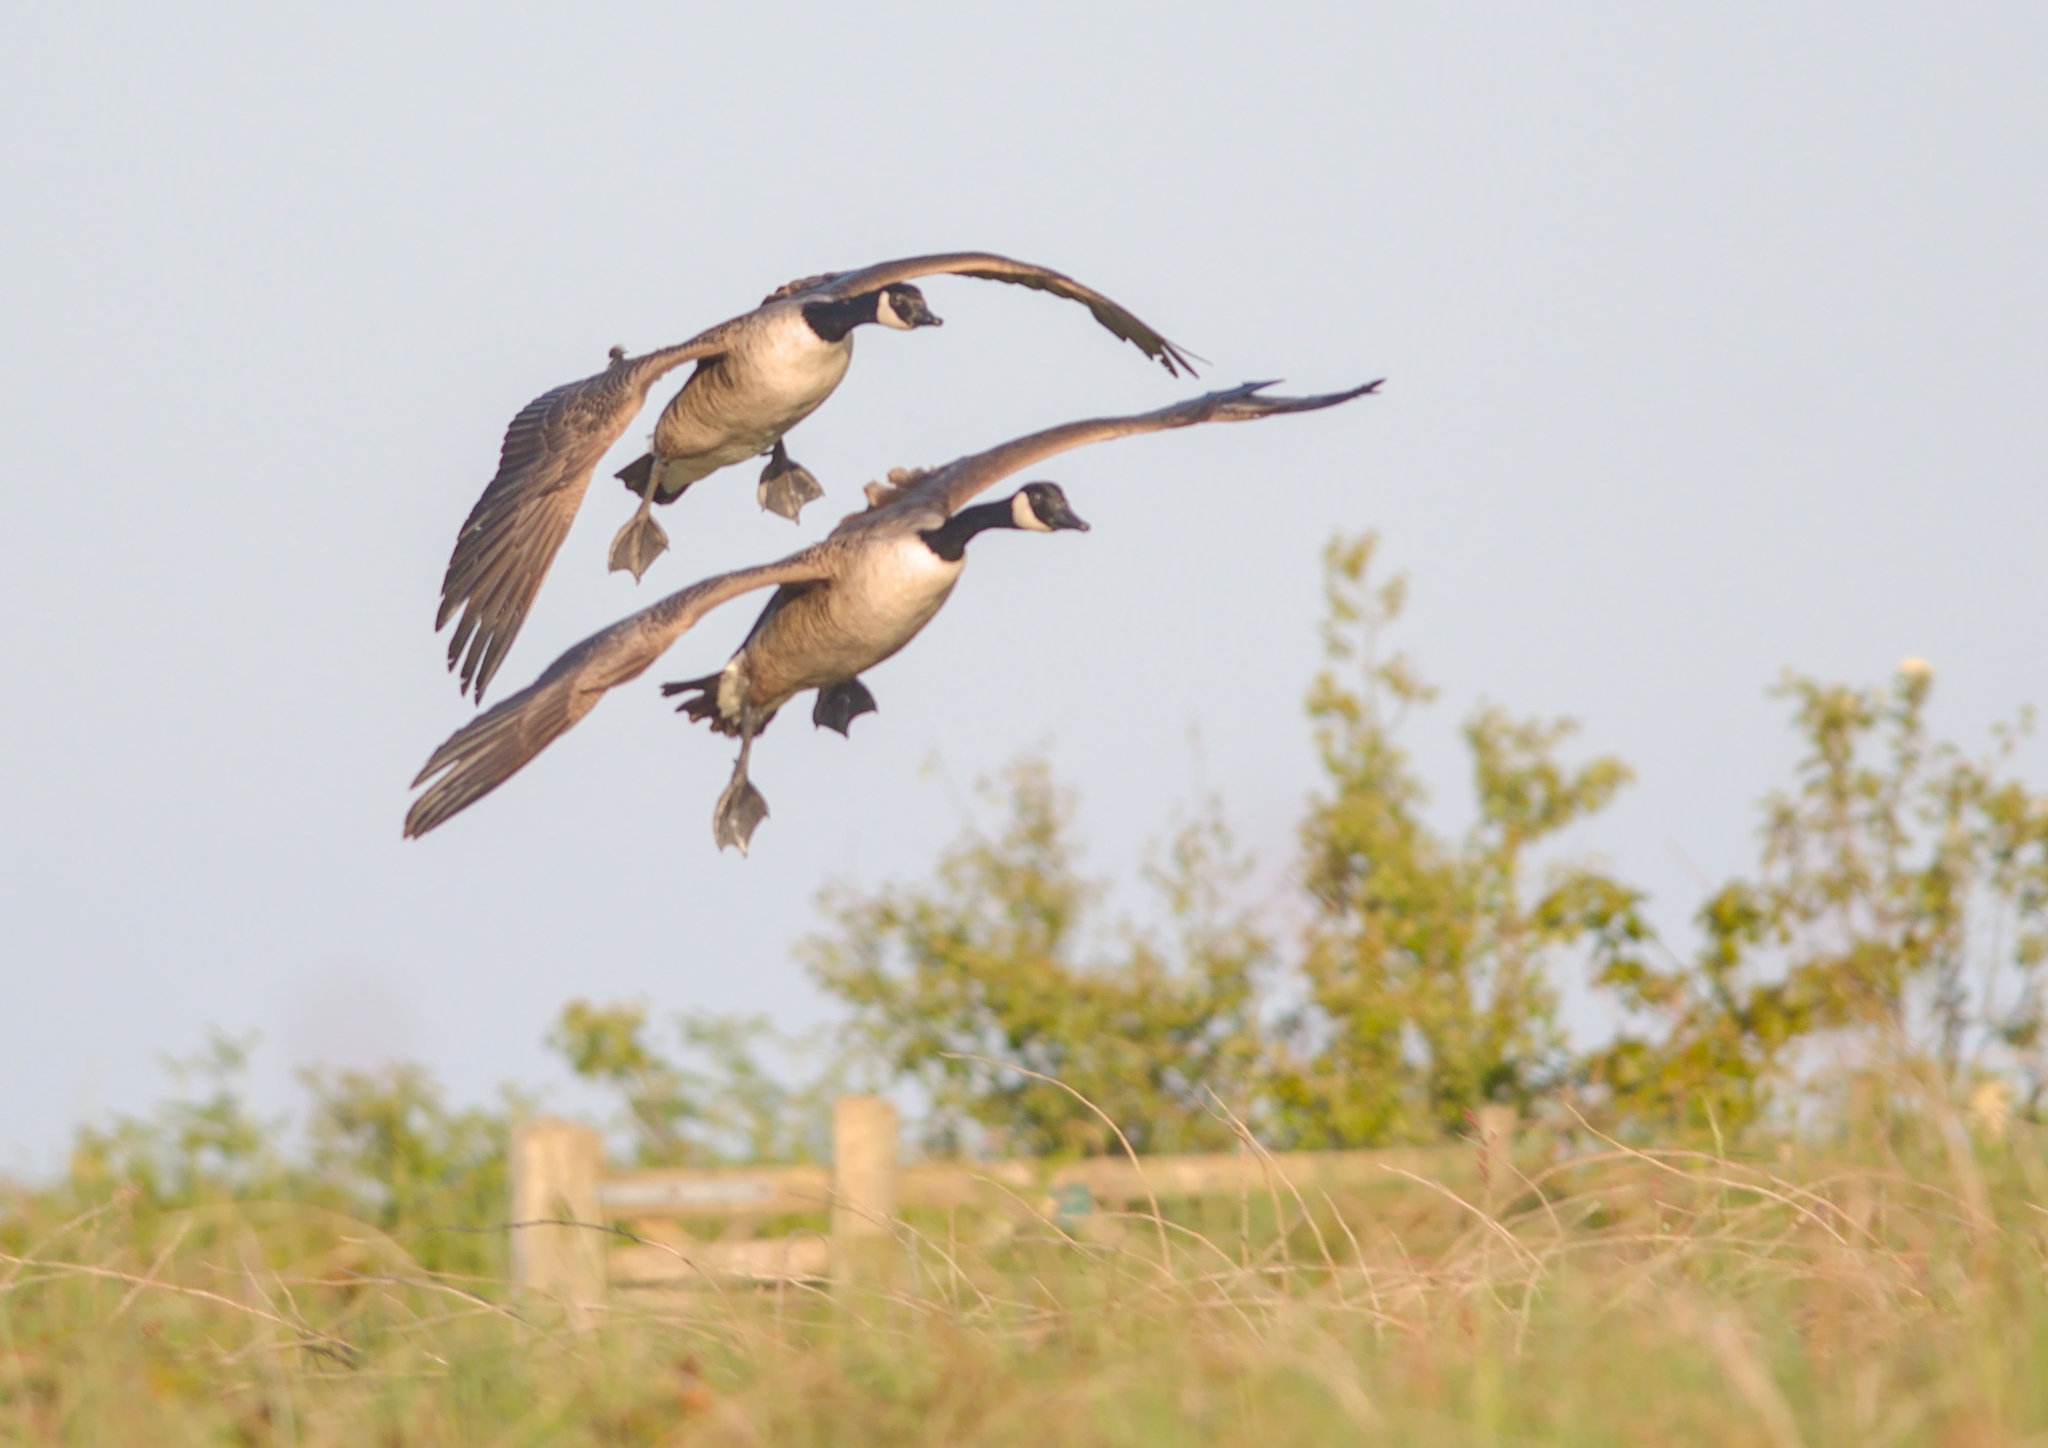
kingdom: Animalia
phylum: Chordata
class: Aves
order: Anseriformes
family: Anatidae
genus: Branta
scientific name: Branta canadensis
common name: Canada goose
